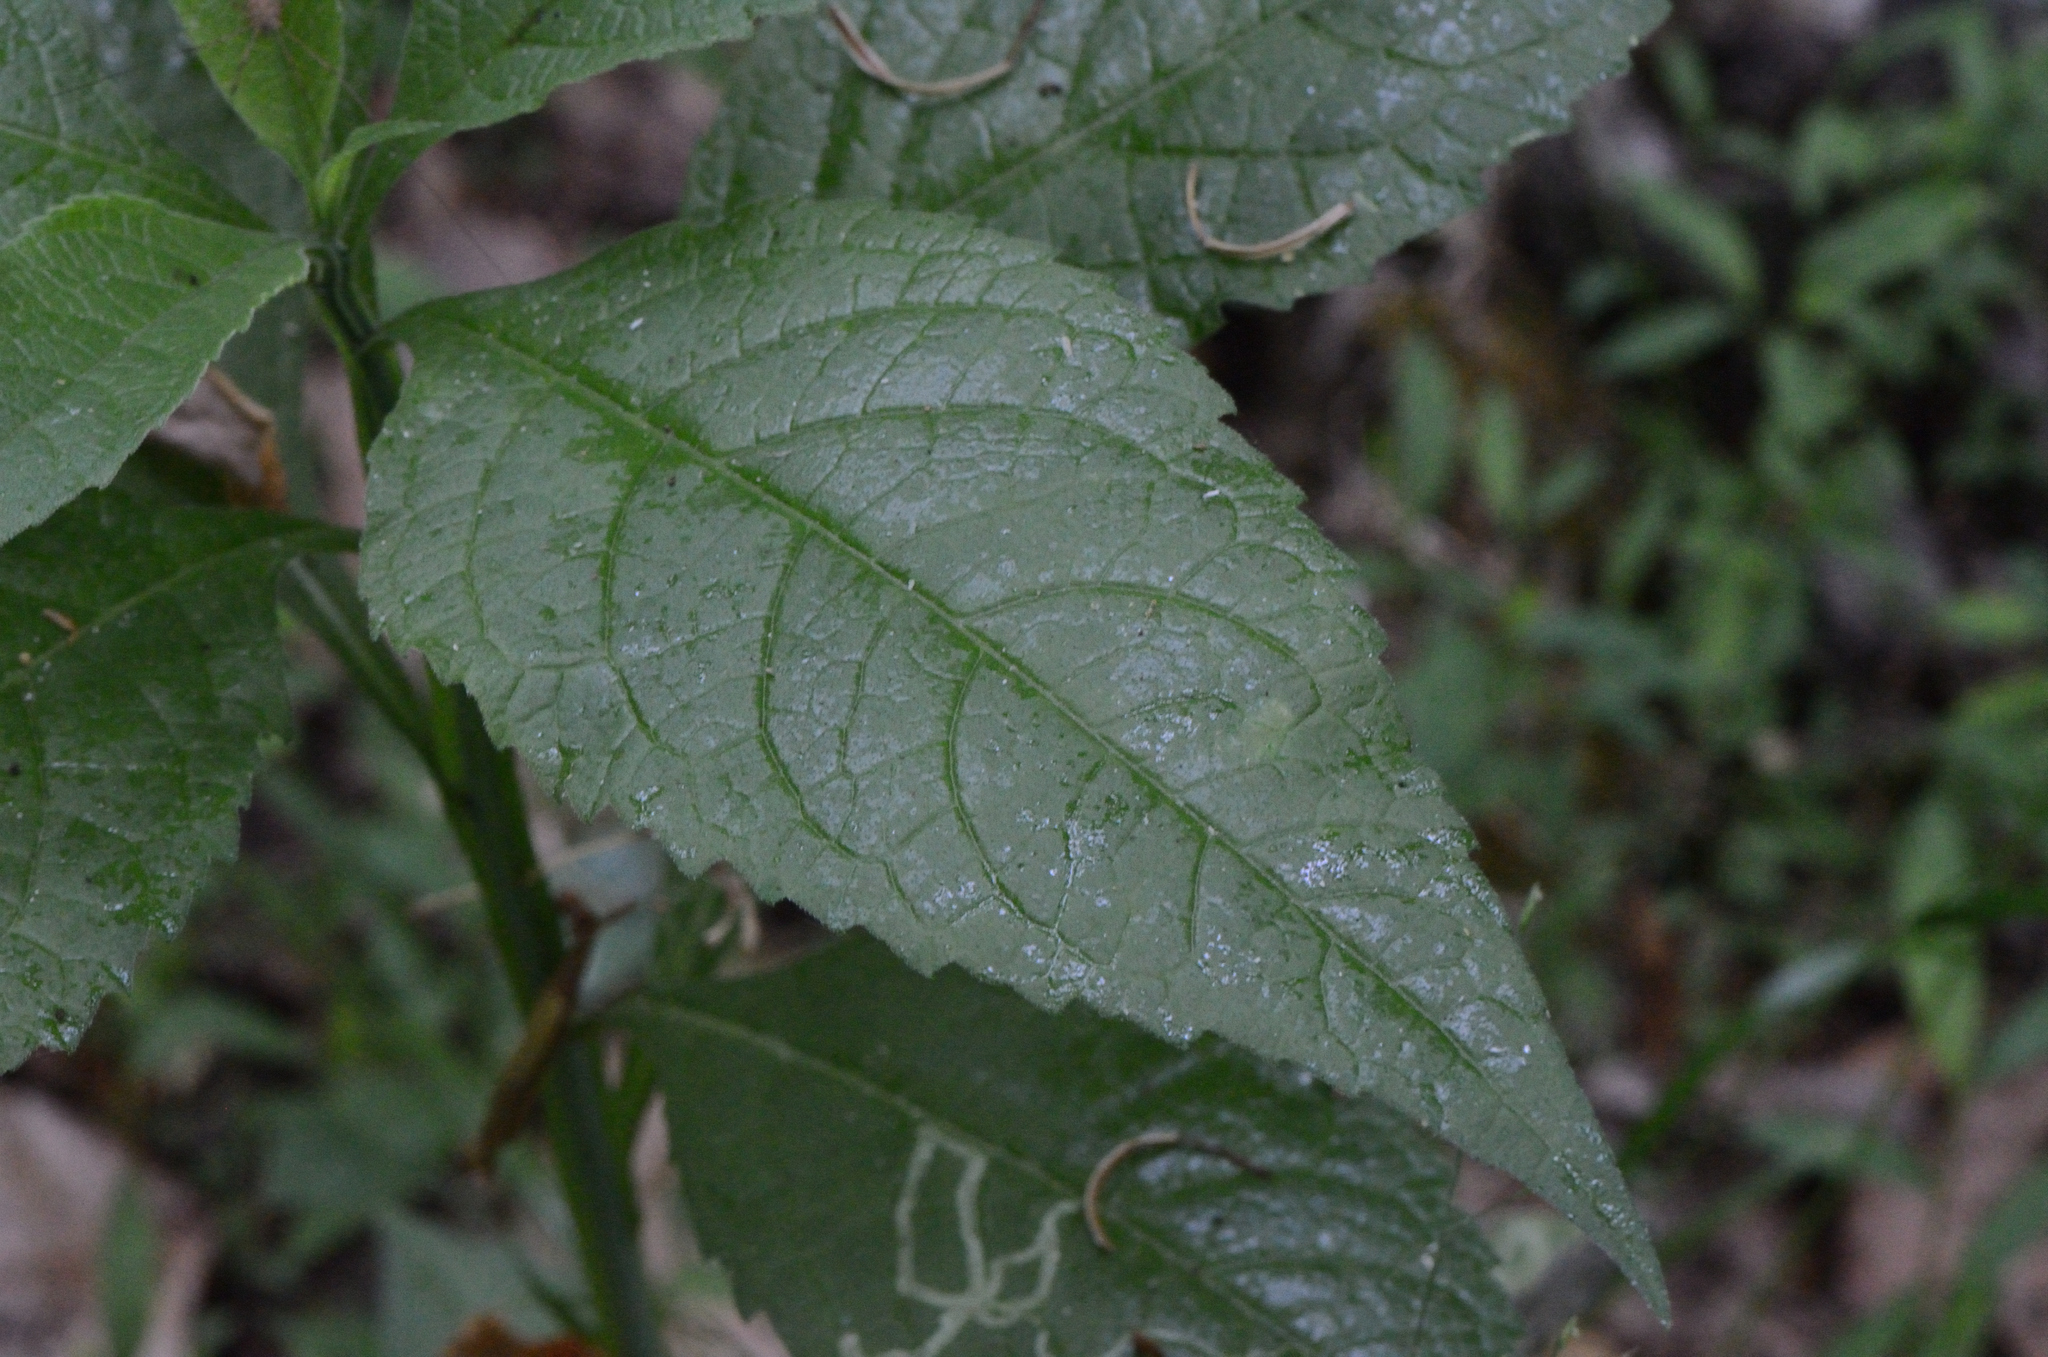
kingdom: Plantae
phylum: Tracheophyta
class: Magnoliopsida
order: Asterales
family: Asteraceae
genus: Verbesina
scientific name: Verbesina alternifolia
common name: Wingstem
